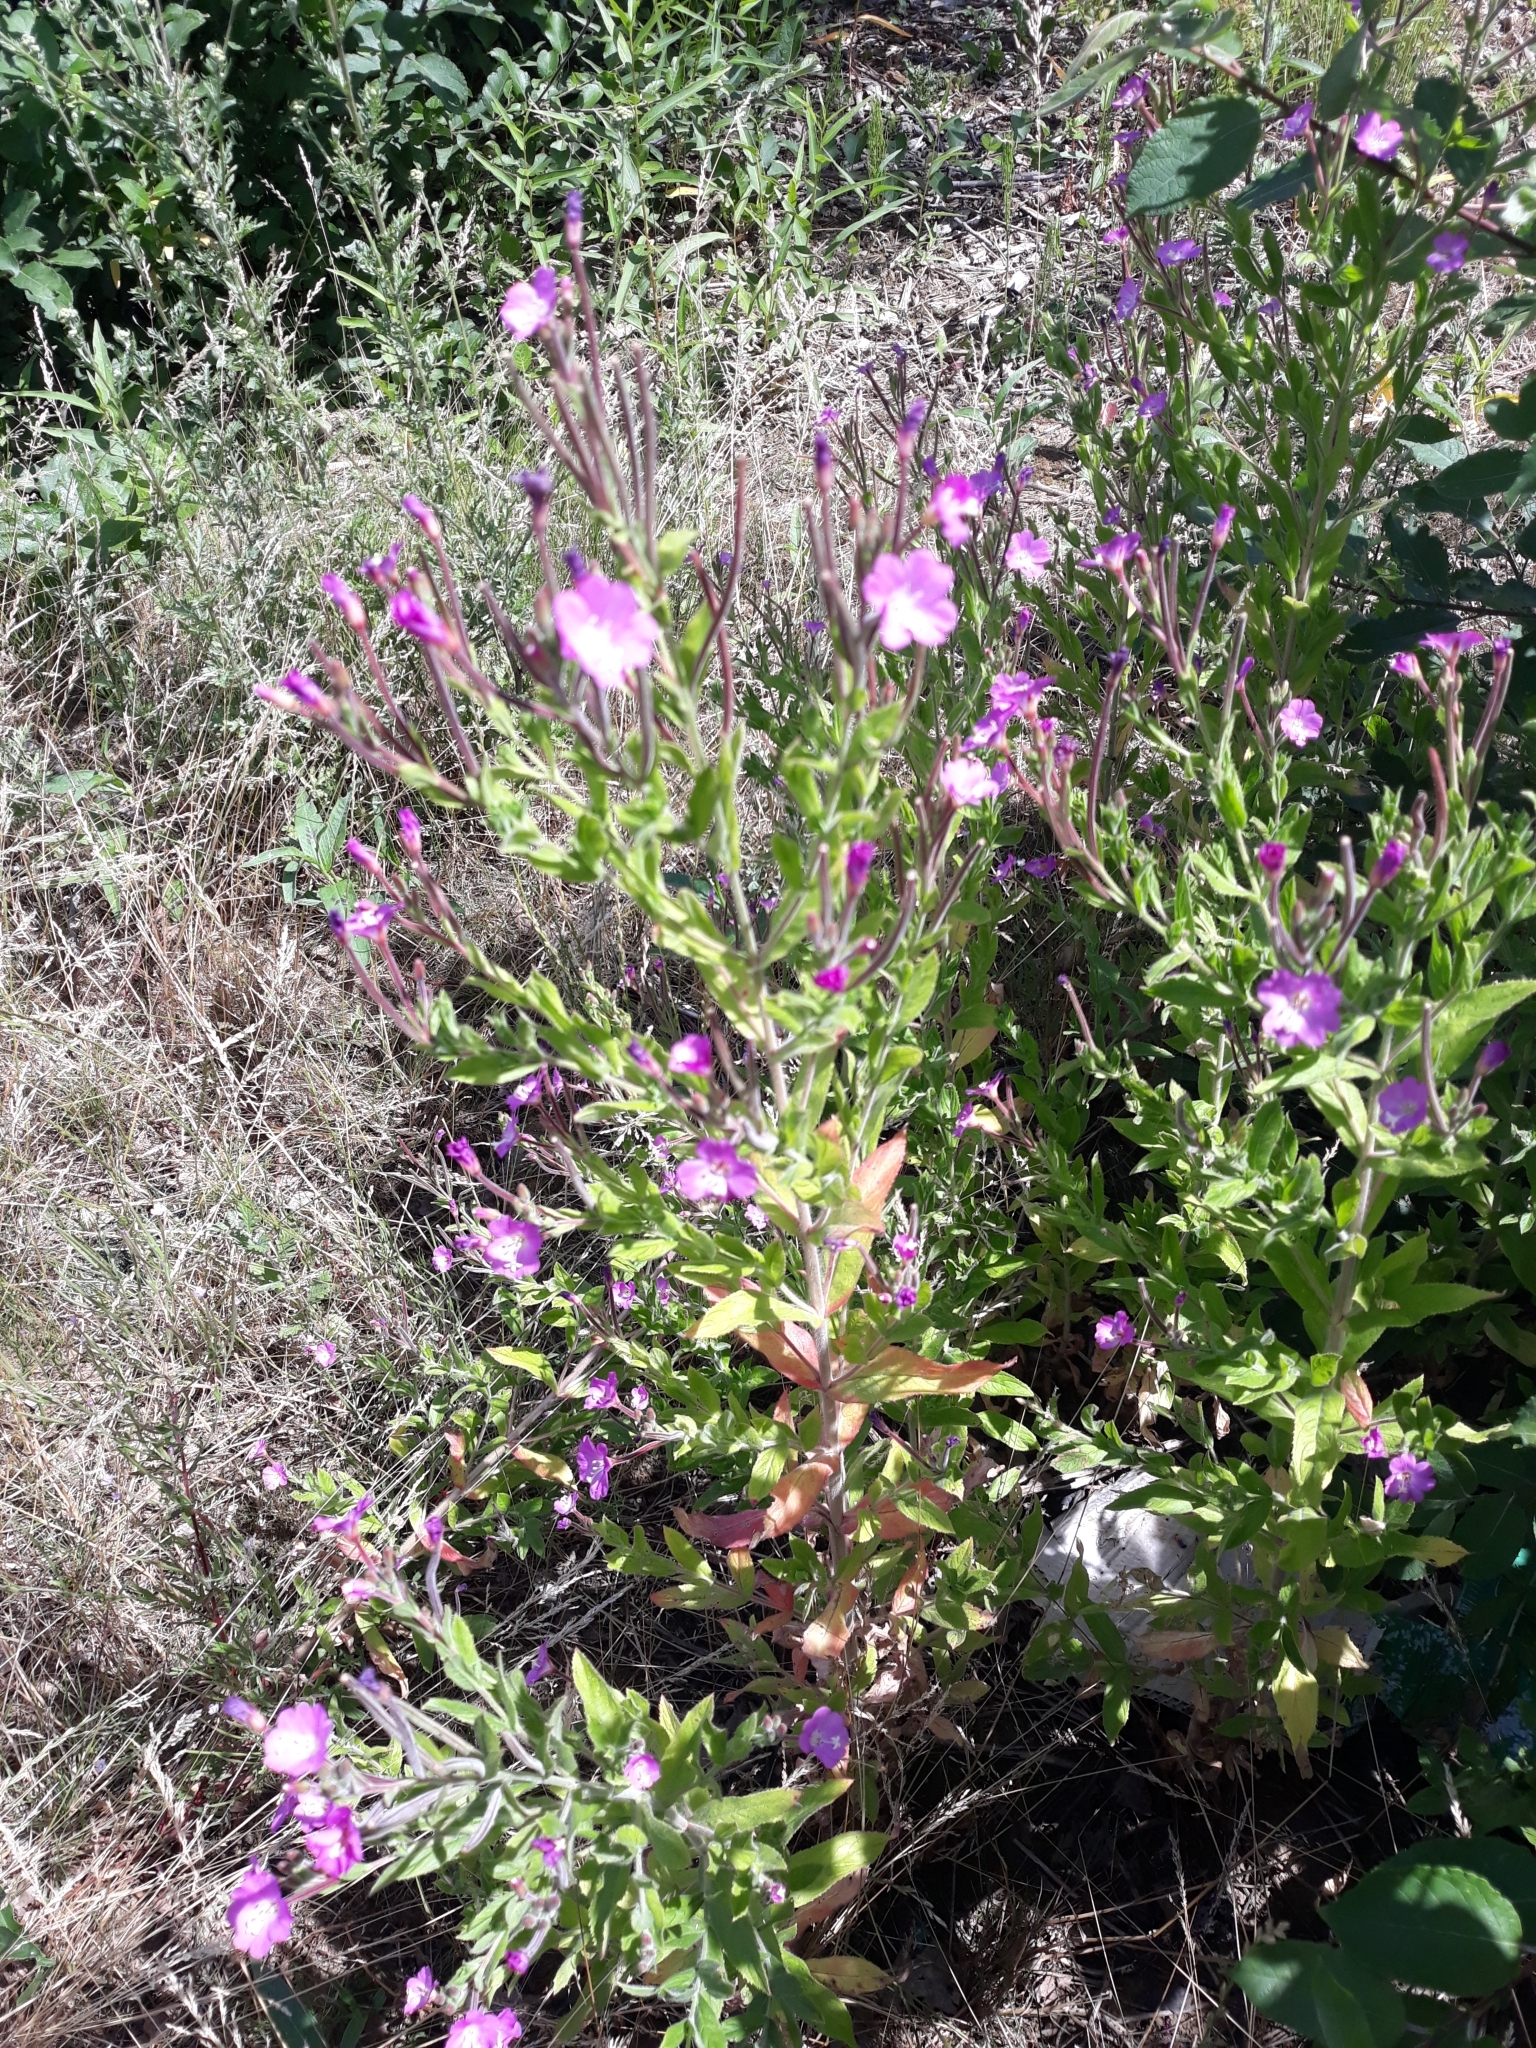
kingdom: Plantae
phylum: Tracheophyta
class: Magnoliopsida
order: Myrtales
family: Onagraceae
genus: Epilobium
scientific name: Epilobium hirsutum
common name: Great willowherb
